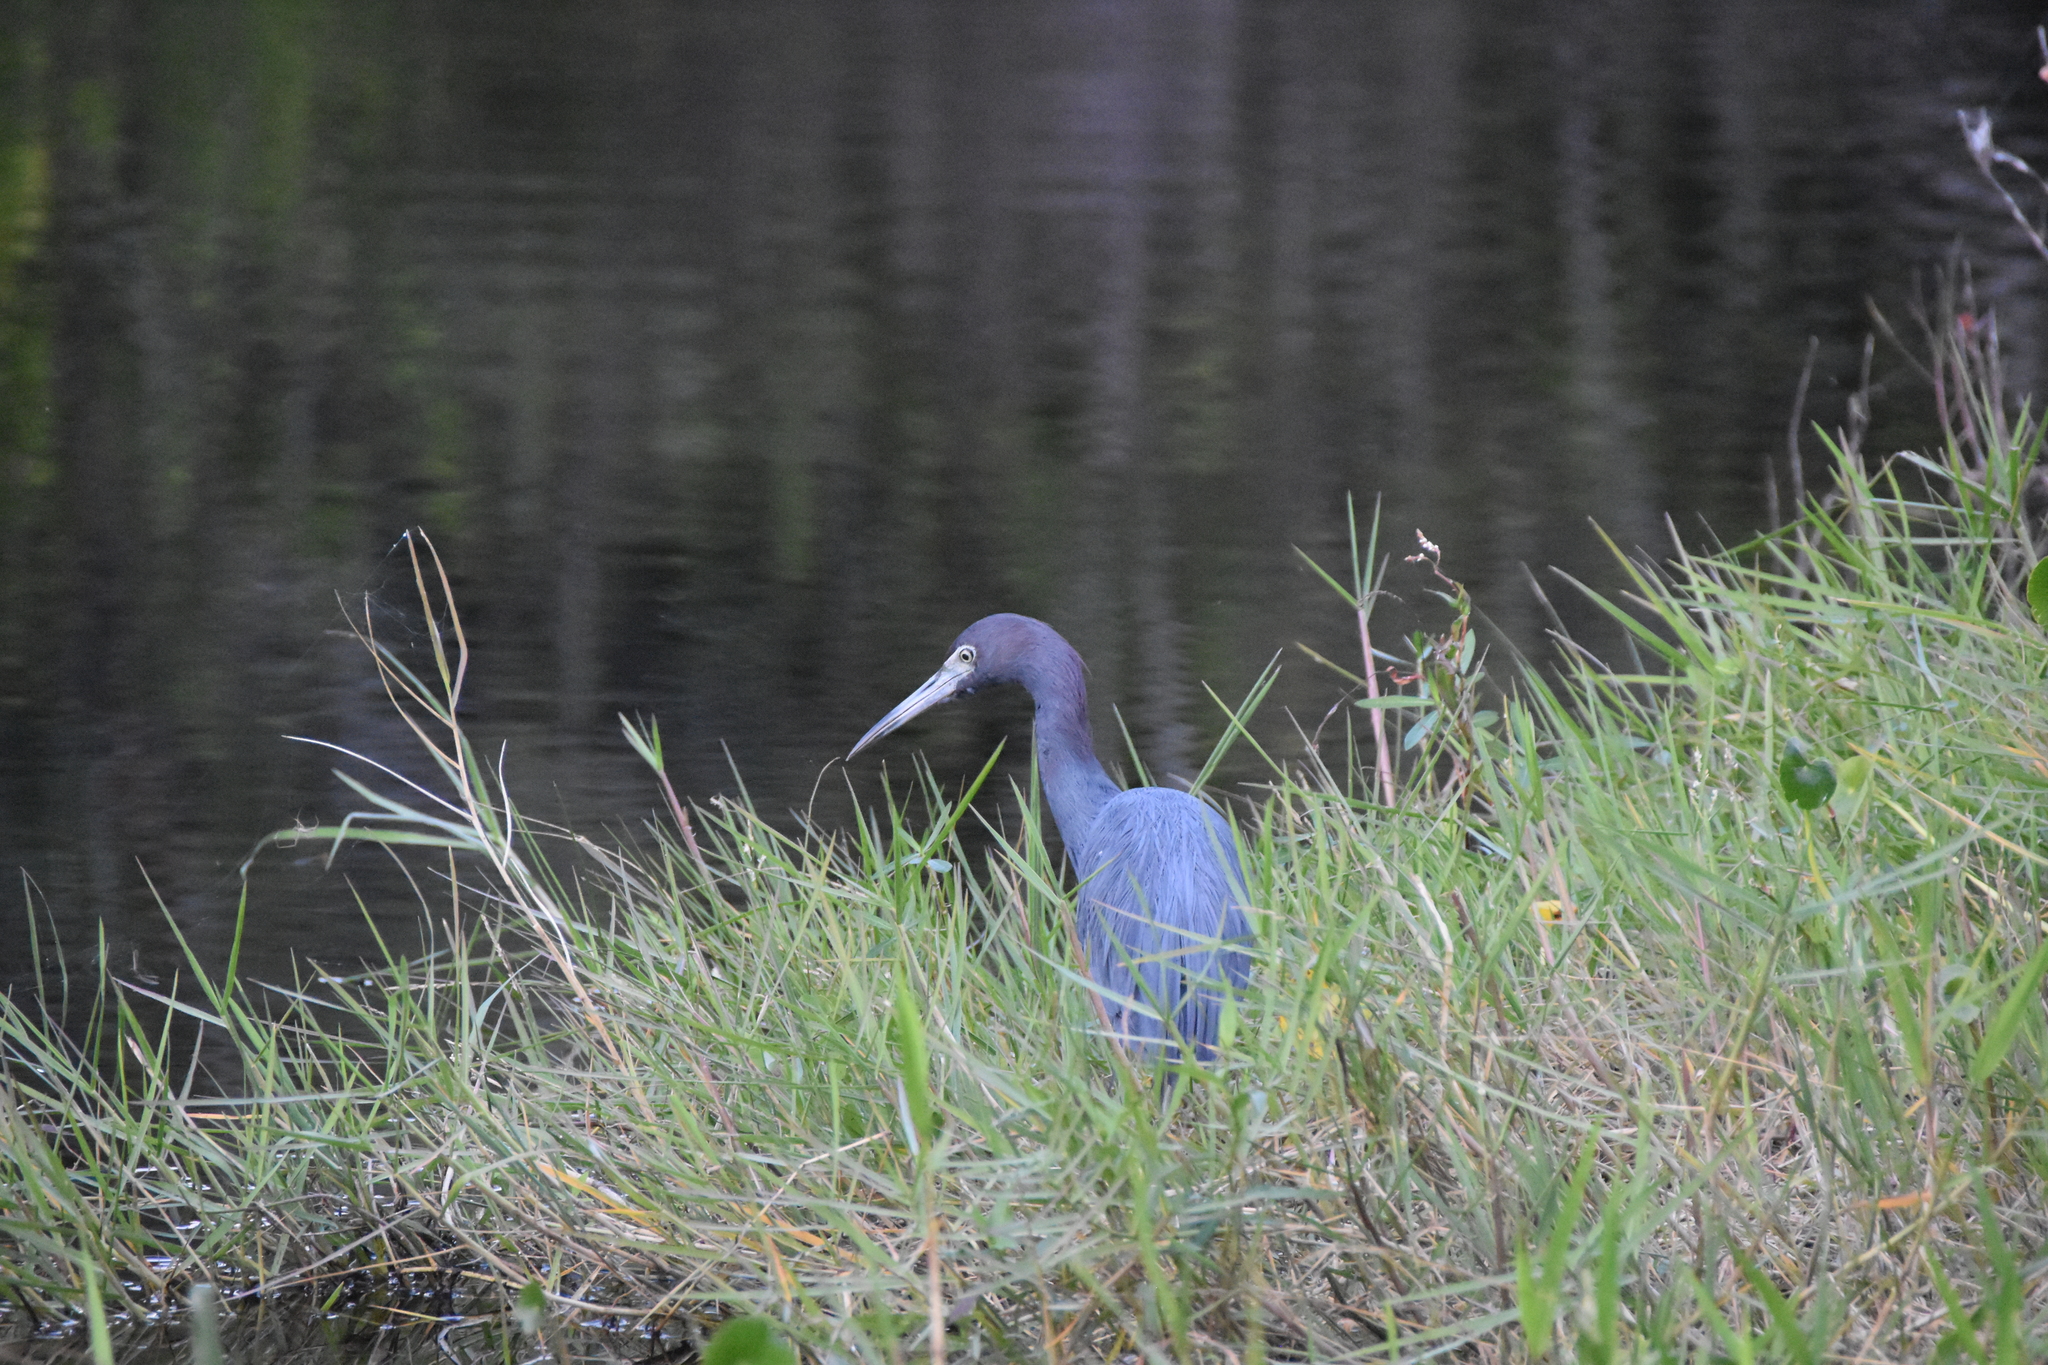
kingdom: Animalia
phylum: Chordata
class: Aves
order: Pelecaniformes
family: Ardeidae
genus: Egretta
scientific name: Egretta caerulea
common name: Little blue heron
